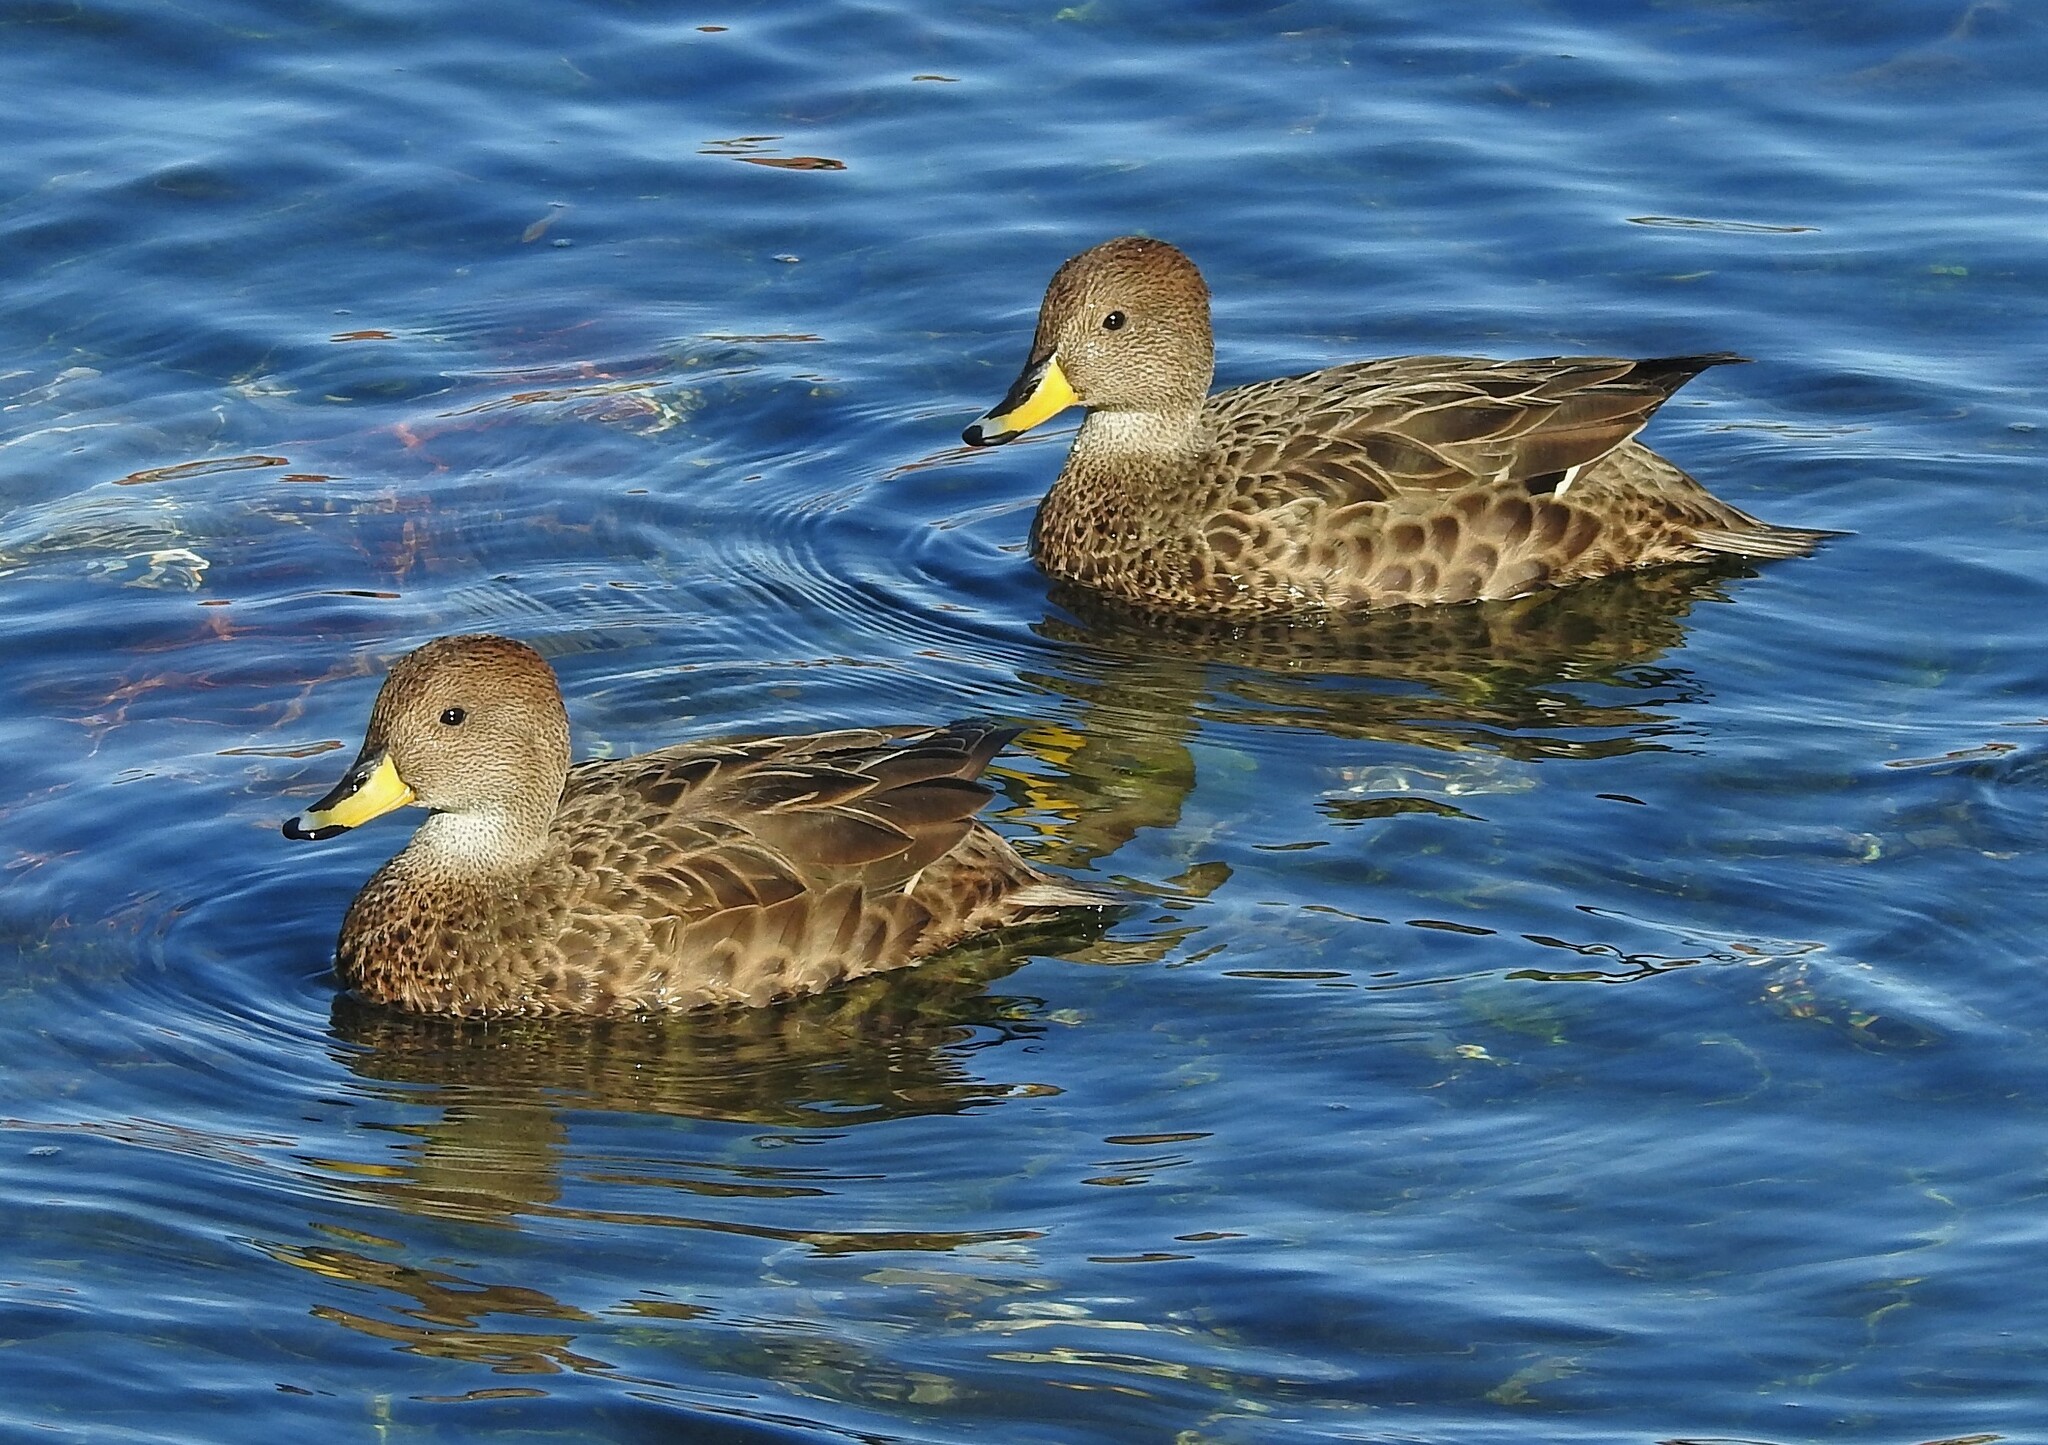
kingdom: Animalia
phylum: Chordata
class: Aves
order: Anseriformes
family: Anatidae
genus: Anas
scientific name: Anas georgica
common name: Yellow-billed pintail
